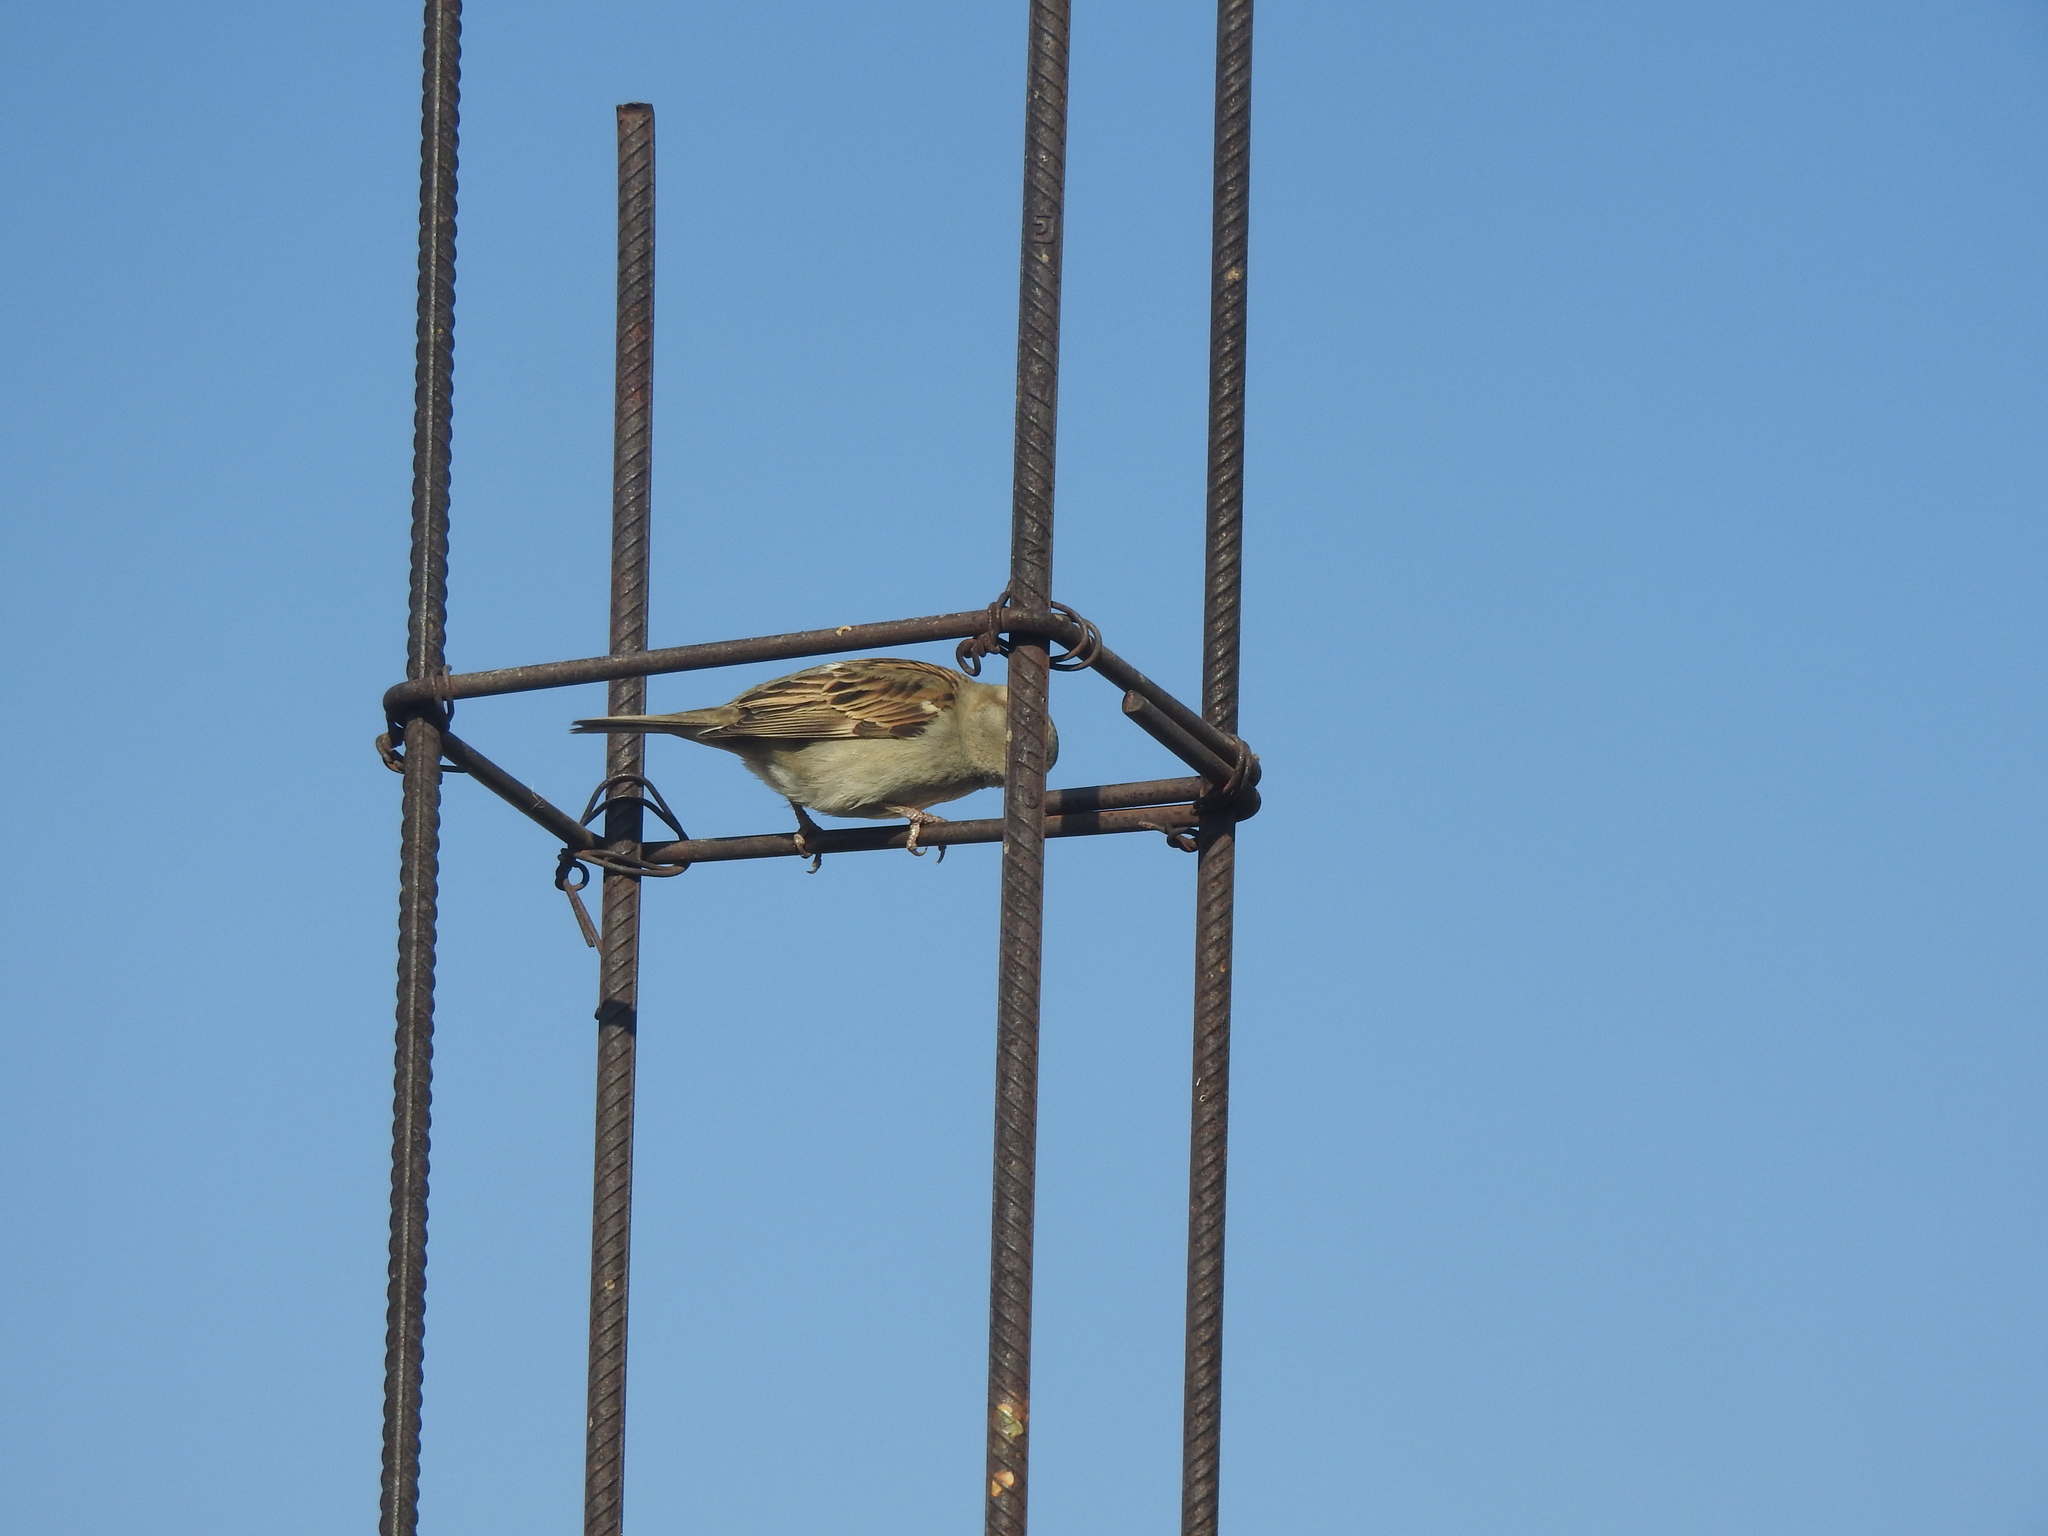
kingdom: Animalia
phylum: Chordata
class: Aves
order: Passeriformes
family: Passeridae
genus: Passer
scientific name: Passer domesticus
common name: House sparrow
